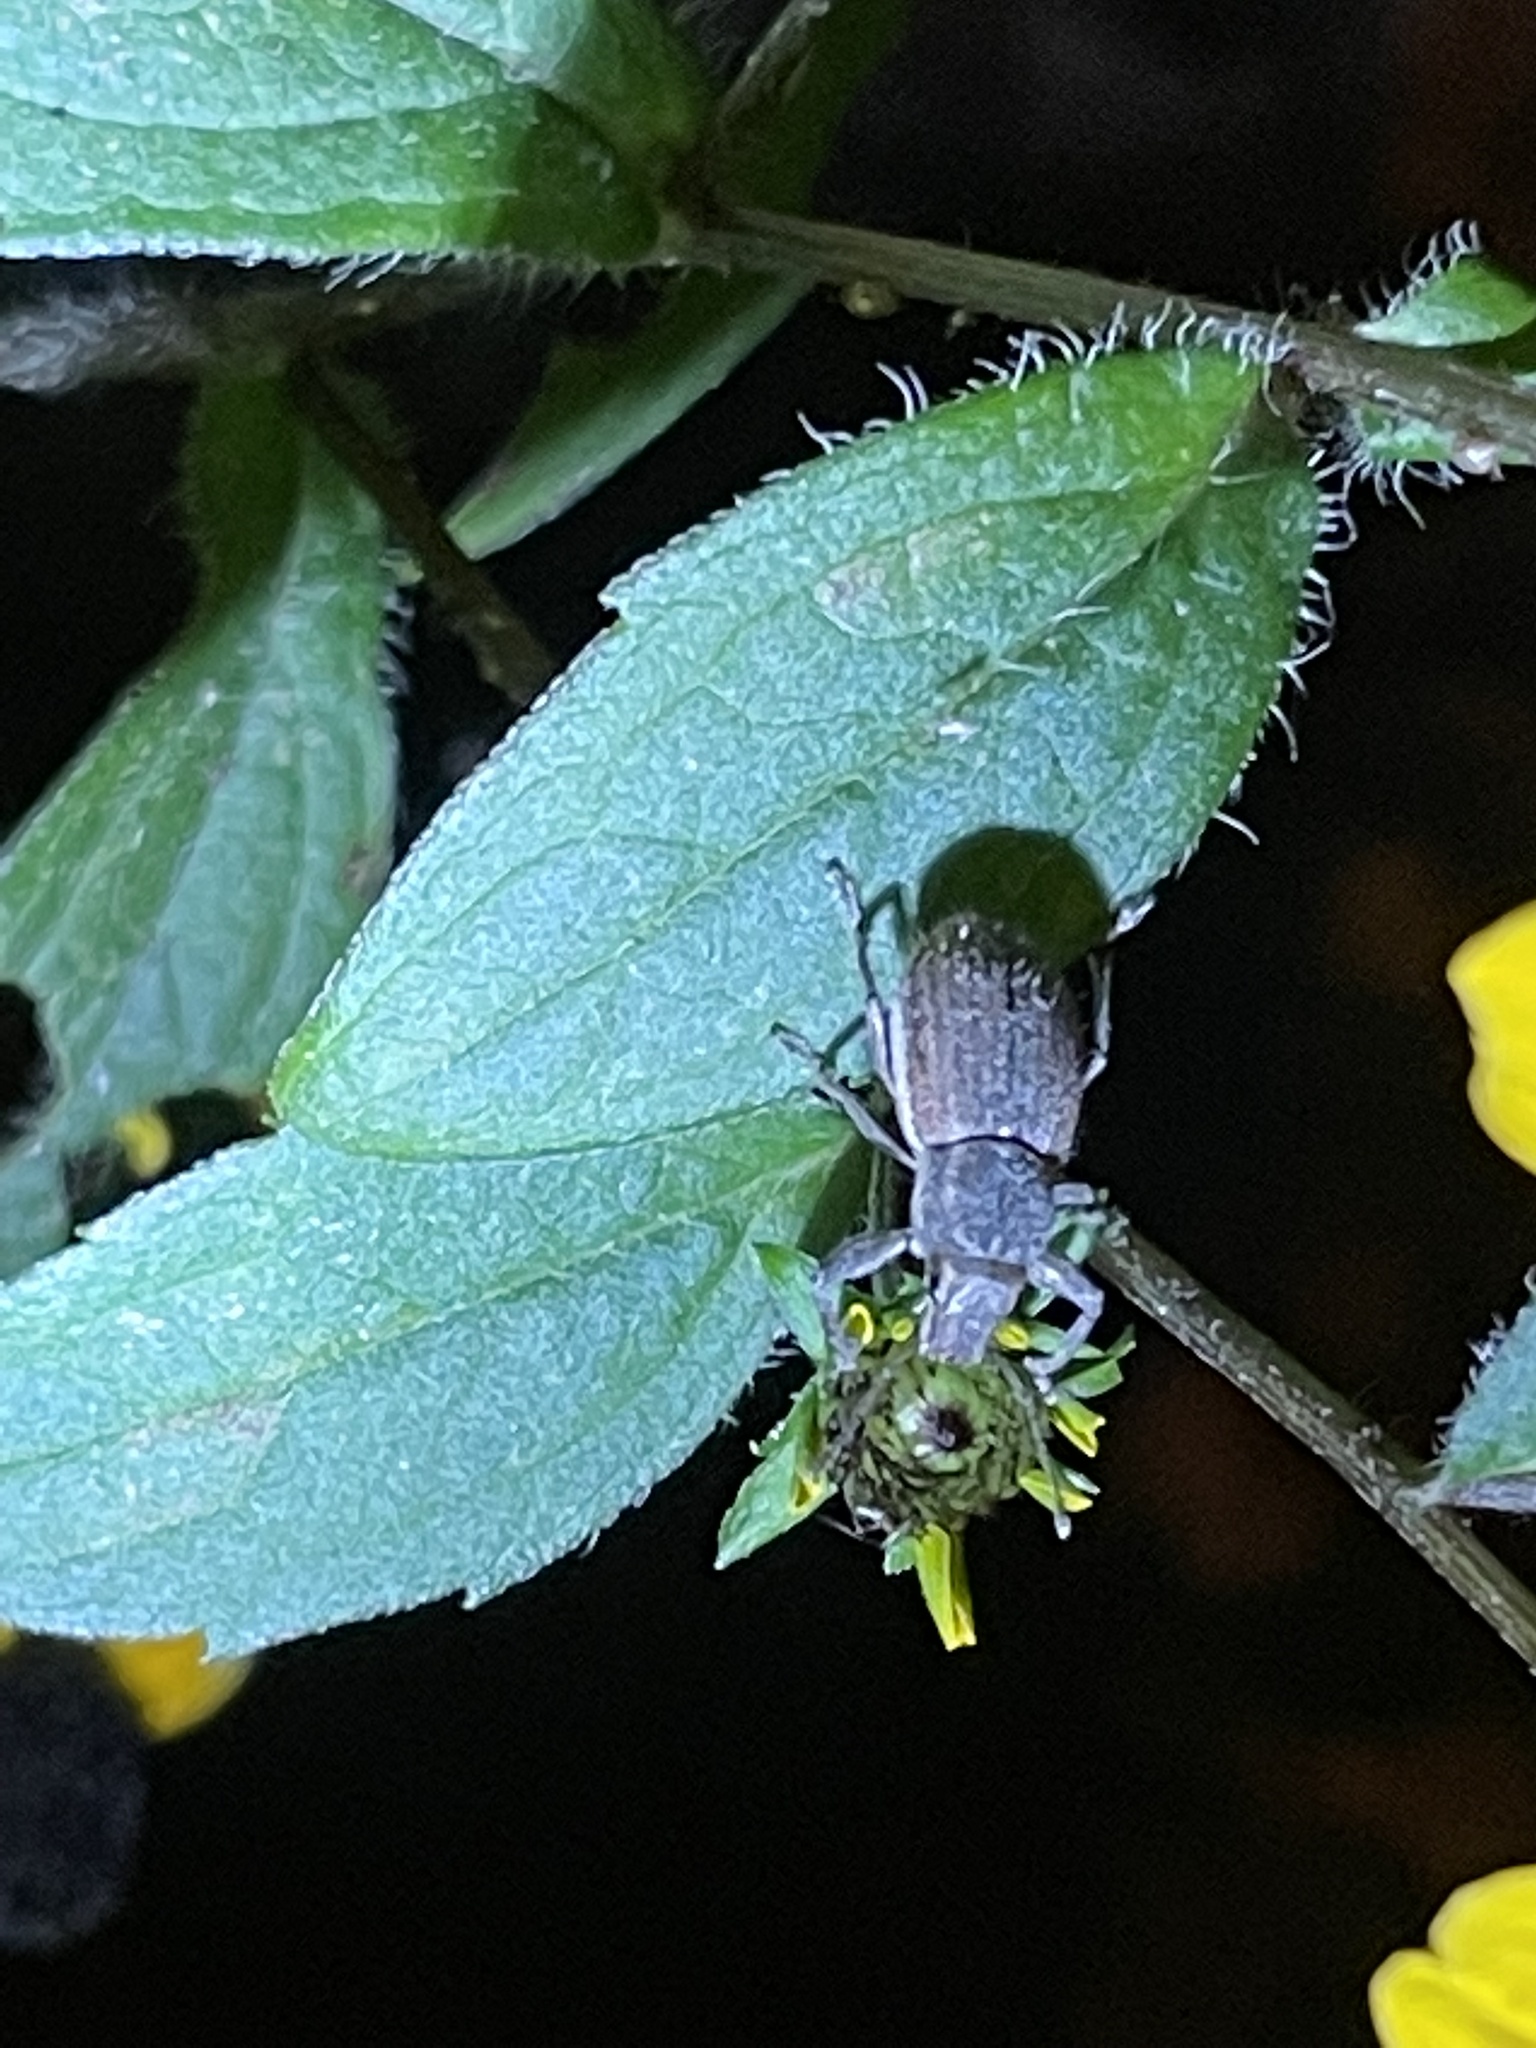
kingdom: Animalia
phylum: Arthropoda
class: Insecta
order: Coleoptera
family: Curculionidae
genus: Naupactus
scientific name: Naupactus leucoloma
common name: Whitefringed beetle
